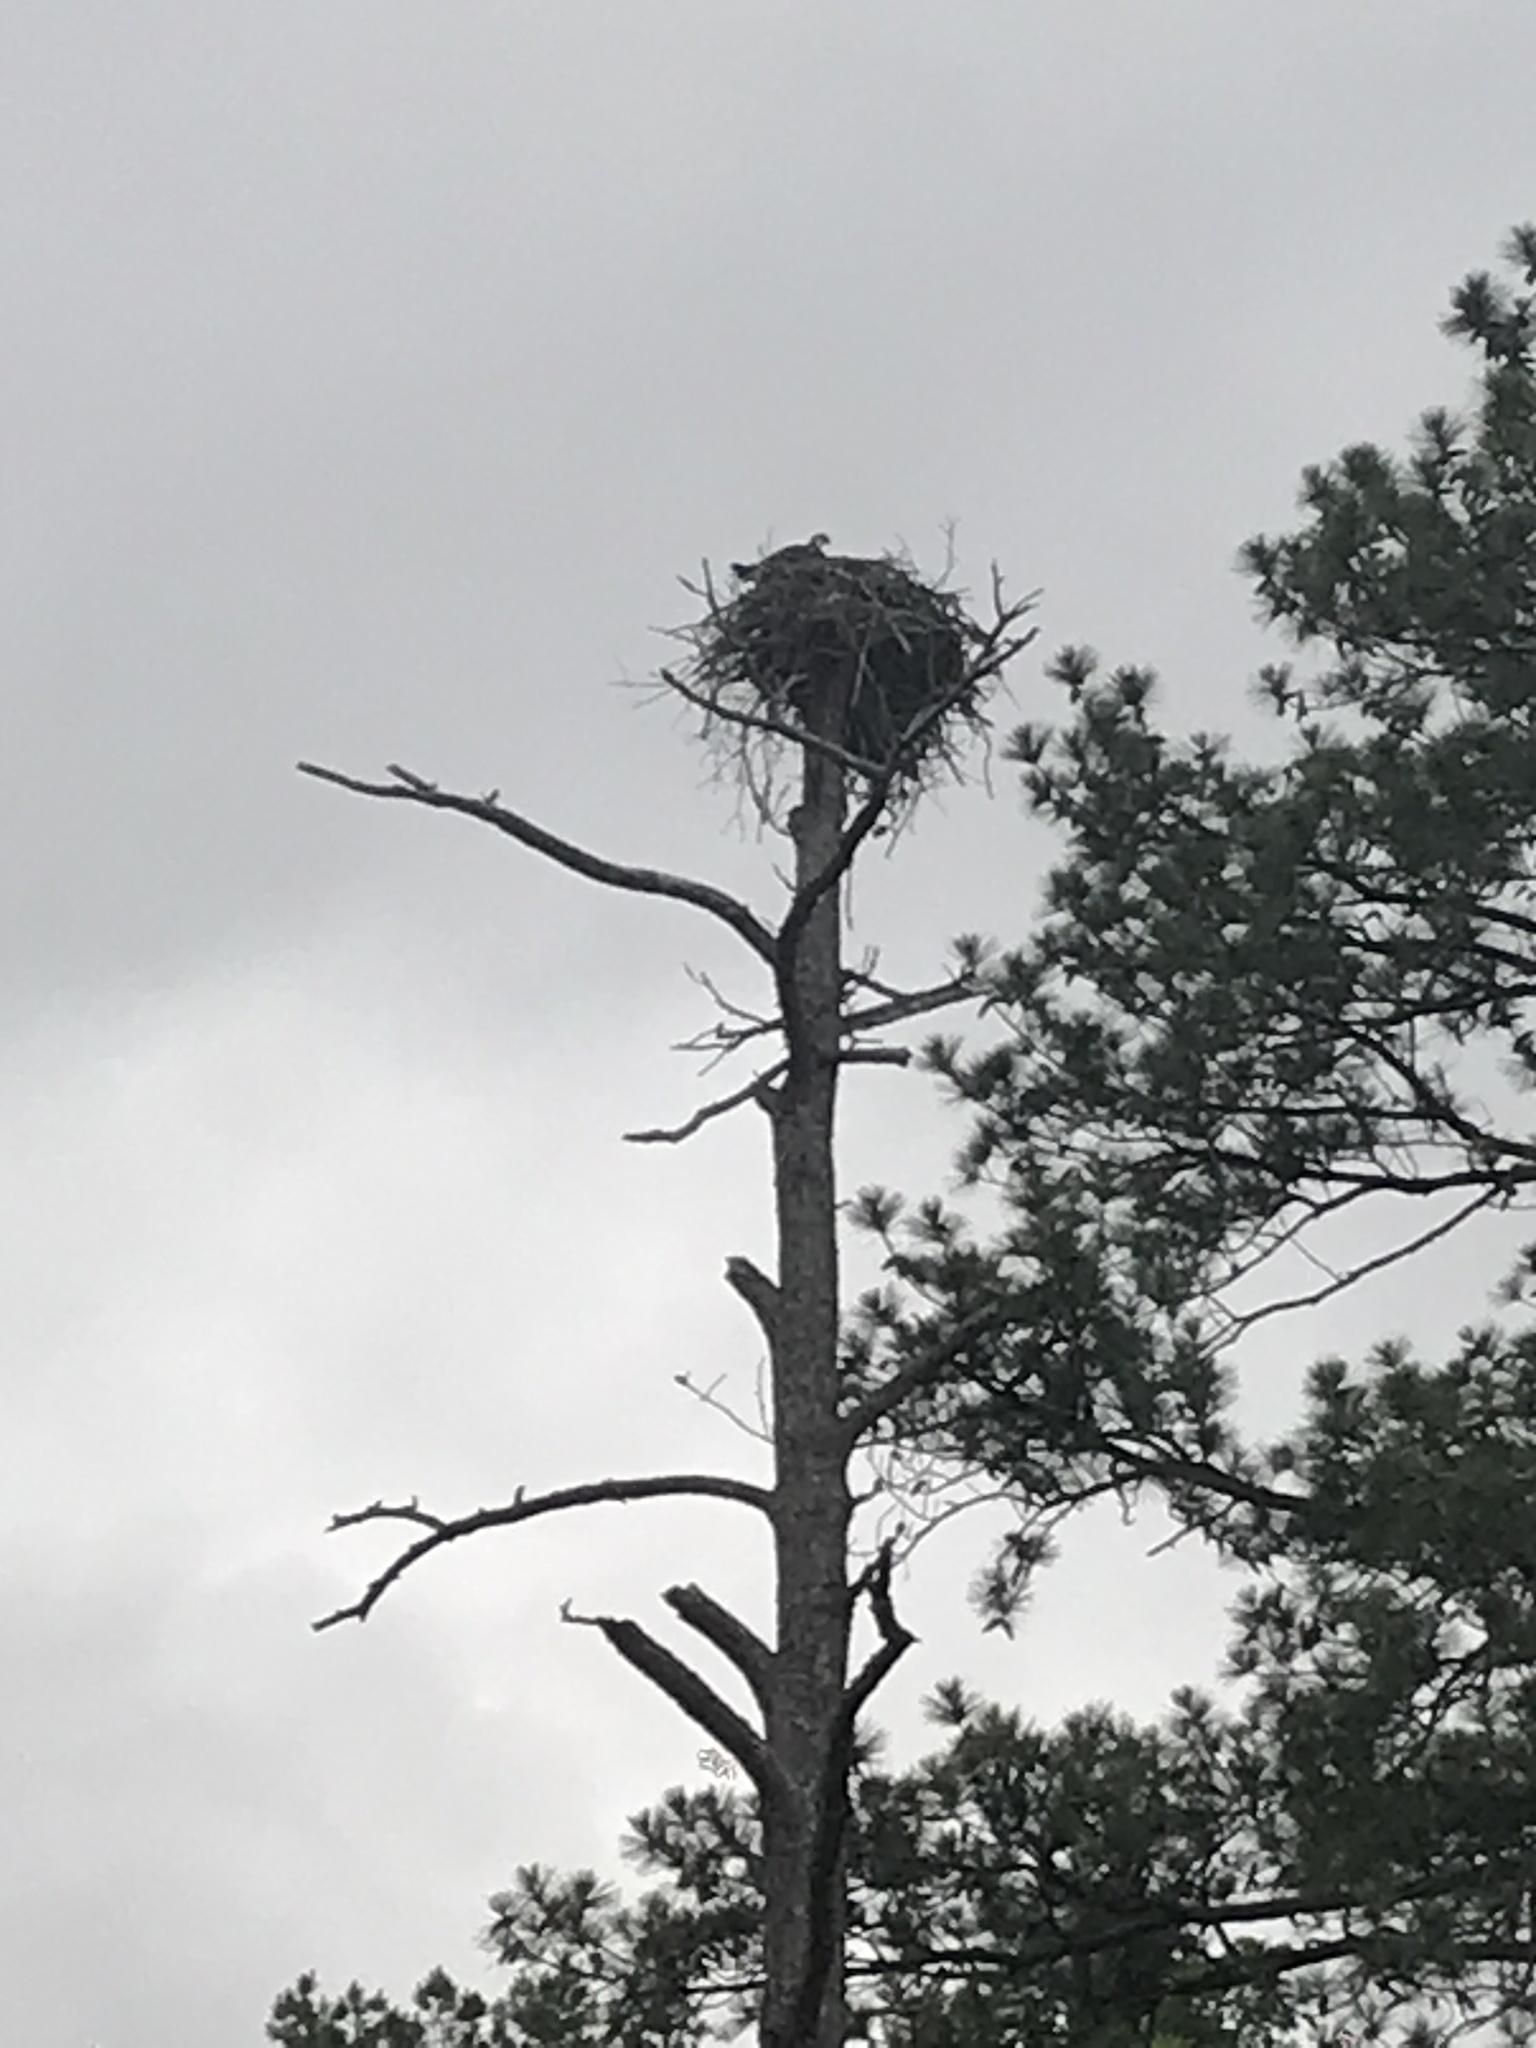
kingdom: Animalia
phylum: Chordata
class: Aves
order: Accipitriformes
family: Pandionidae
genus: Pandion
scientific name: Pandion haliaetus
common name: Osprey
